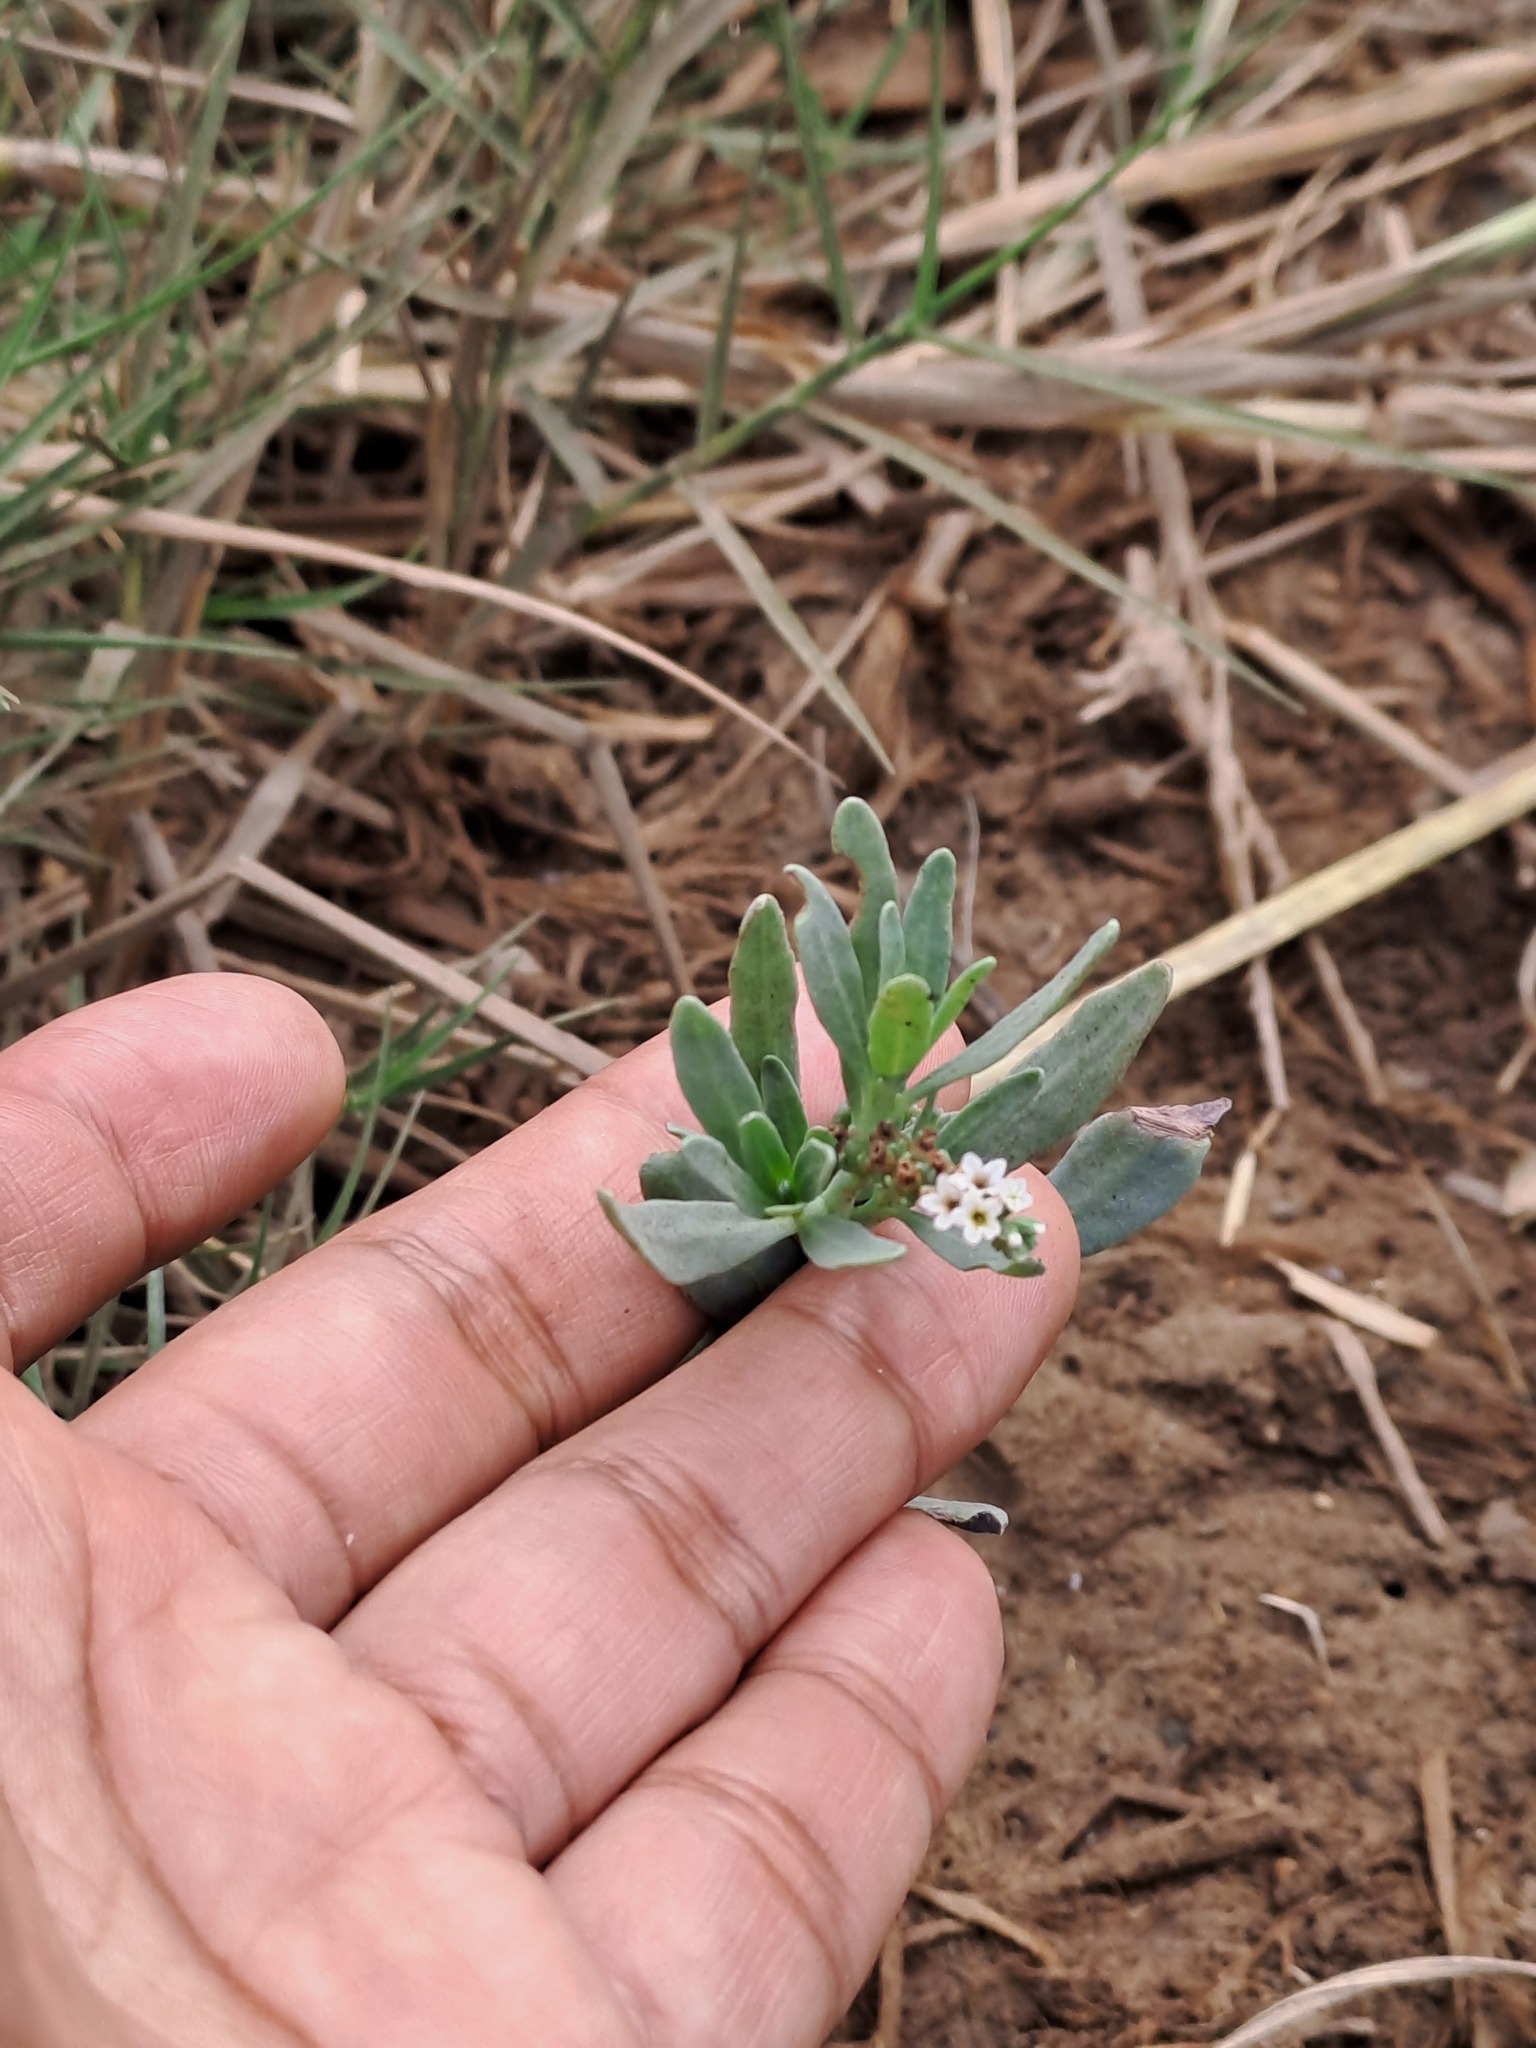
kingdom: Plantae
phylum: Tracheophyta
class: Magnoliopsida
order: Boraginales
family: Heliotropiaceae
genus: Heliotropium
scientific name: Heliotropium curassavicum
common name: Seaside heliotrope
